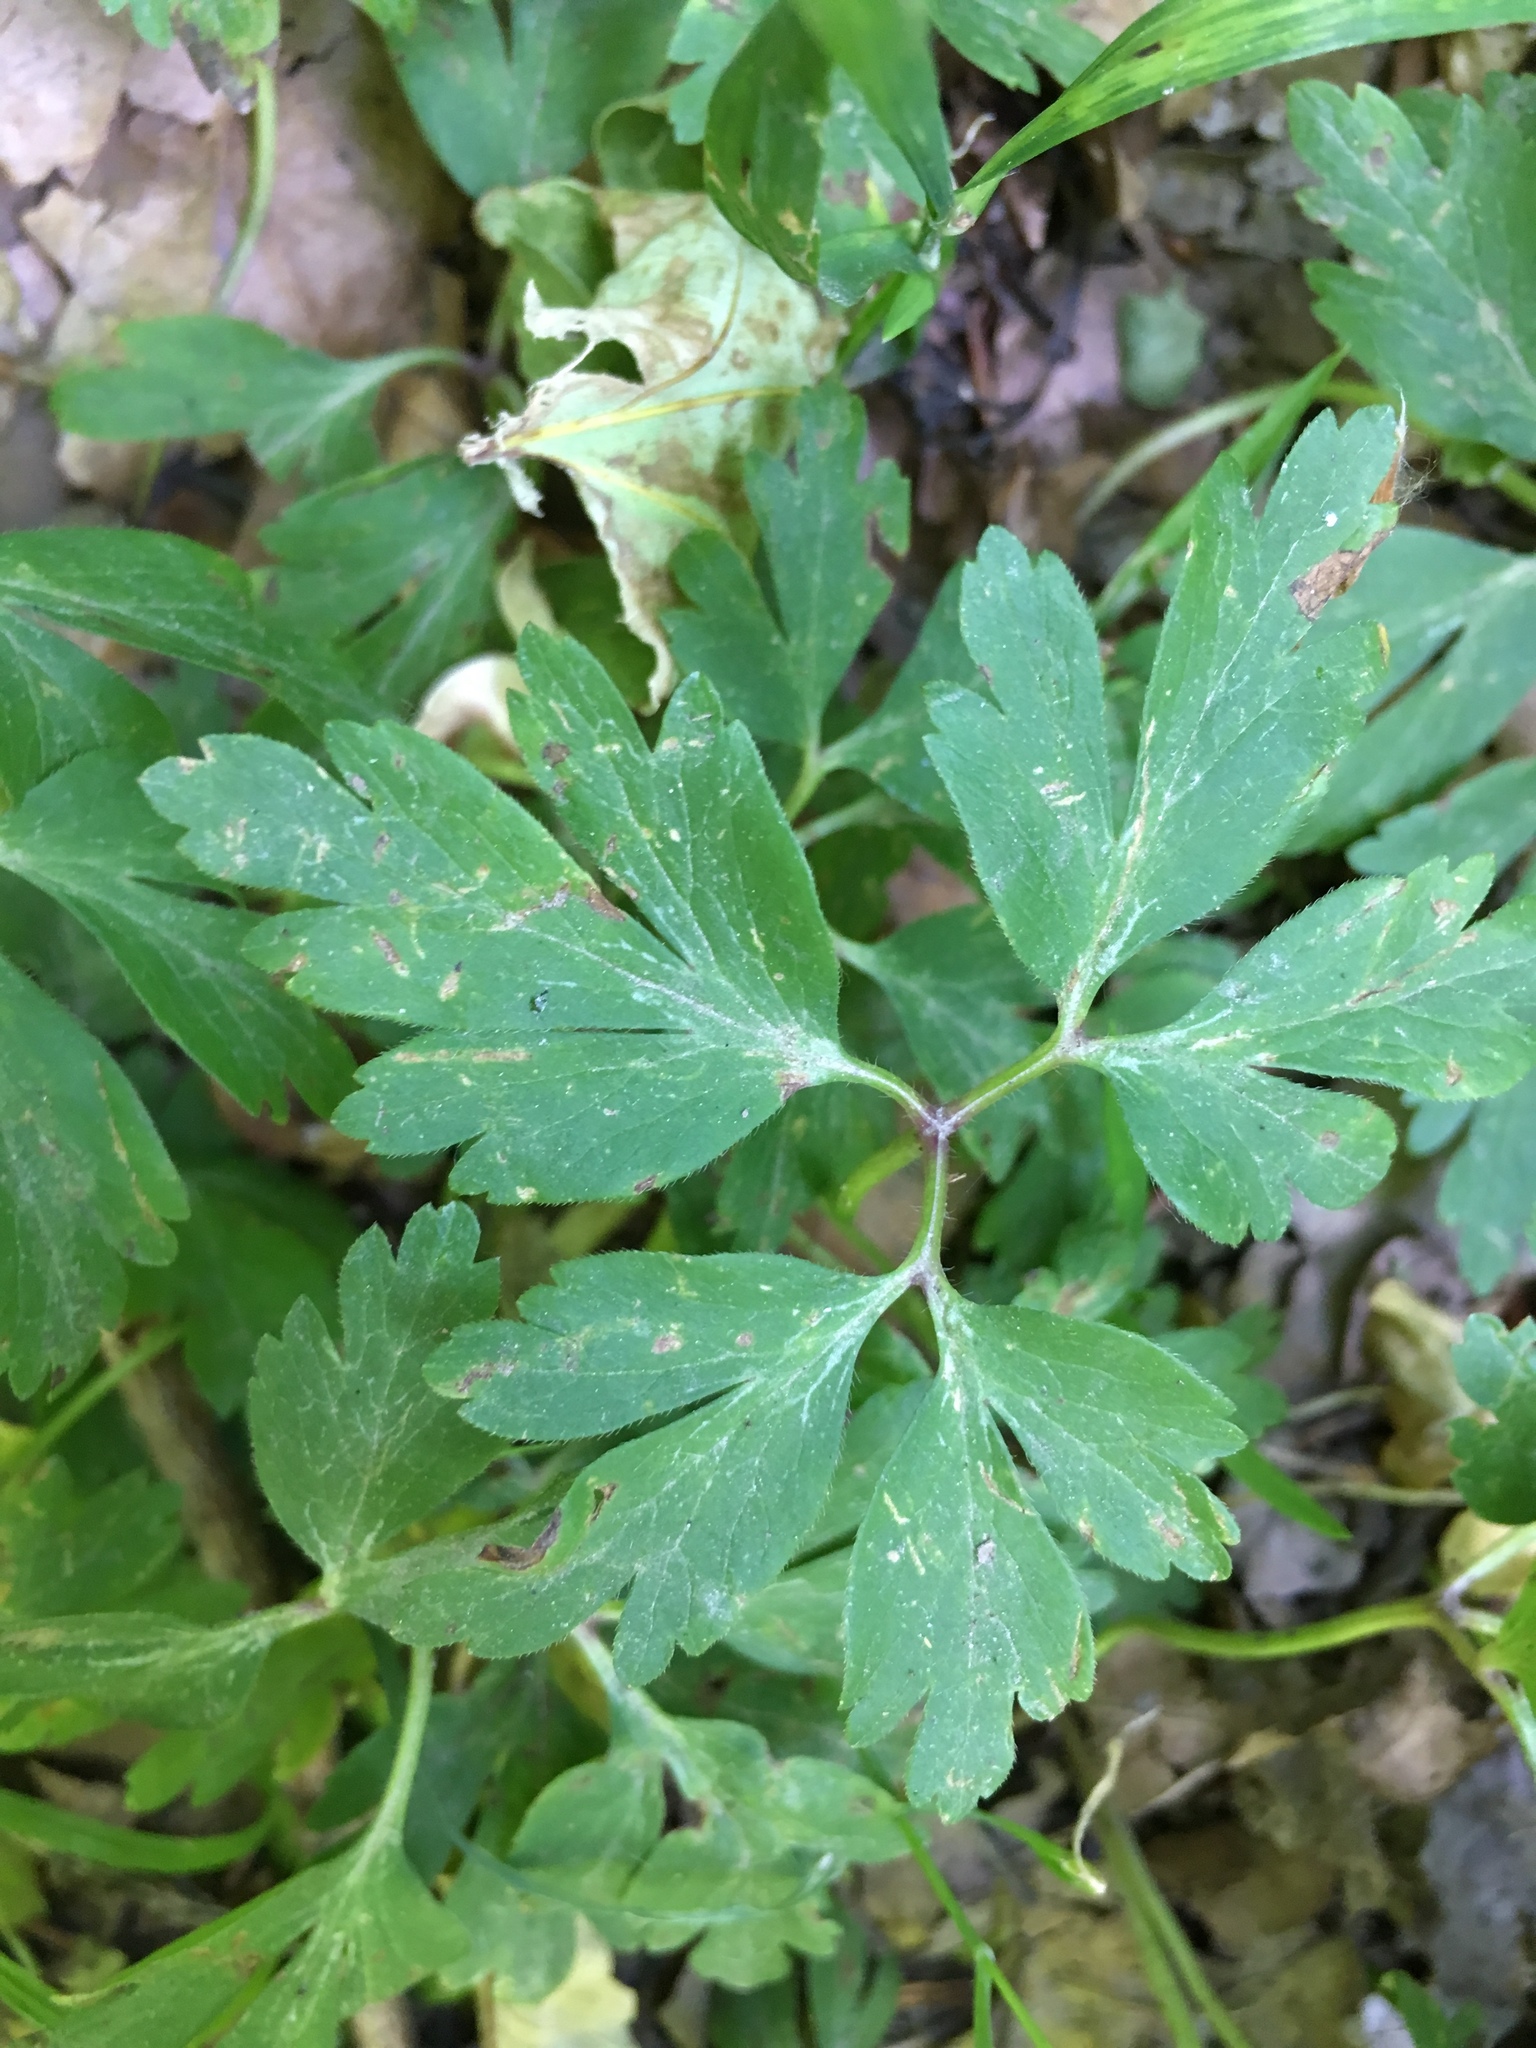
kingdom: Plantae
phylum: Tracheophyta
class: Magnoliopsida
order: Ranunculales
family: Ranunculaceae
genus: Anemone
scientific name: Anemone nemorosa
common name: Wood anemone
